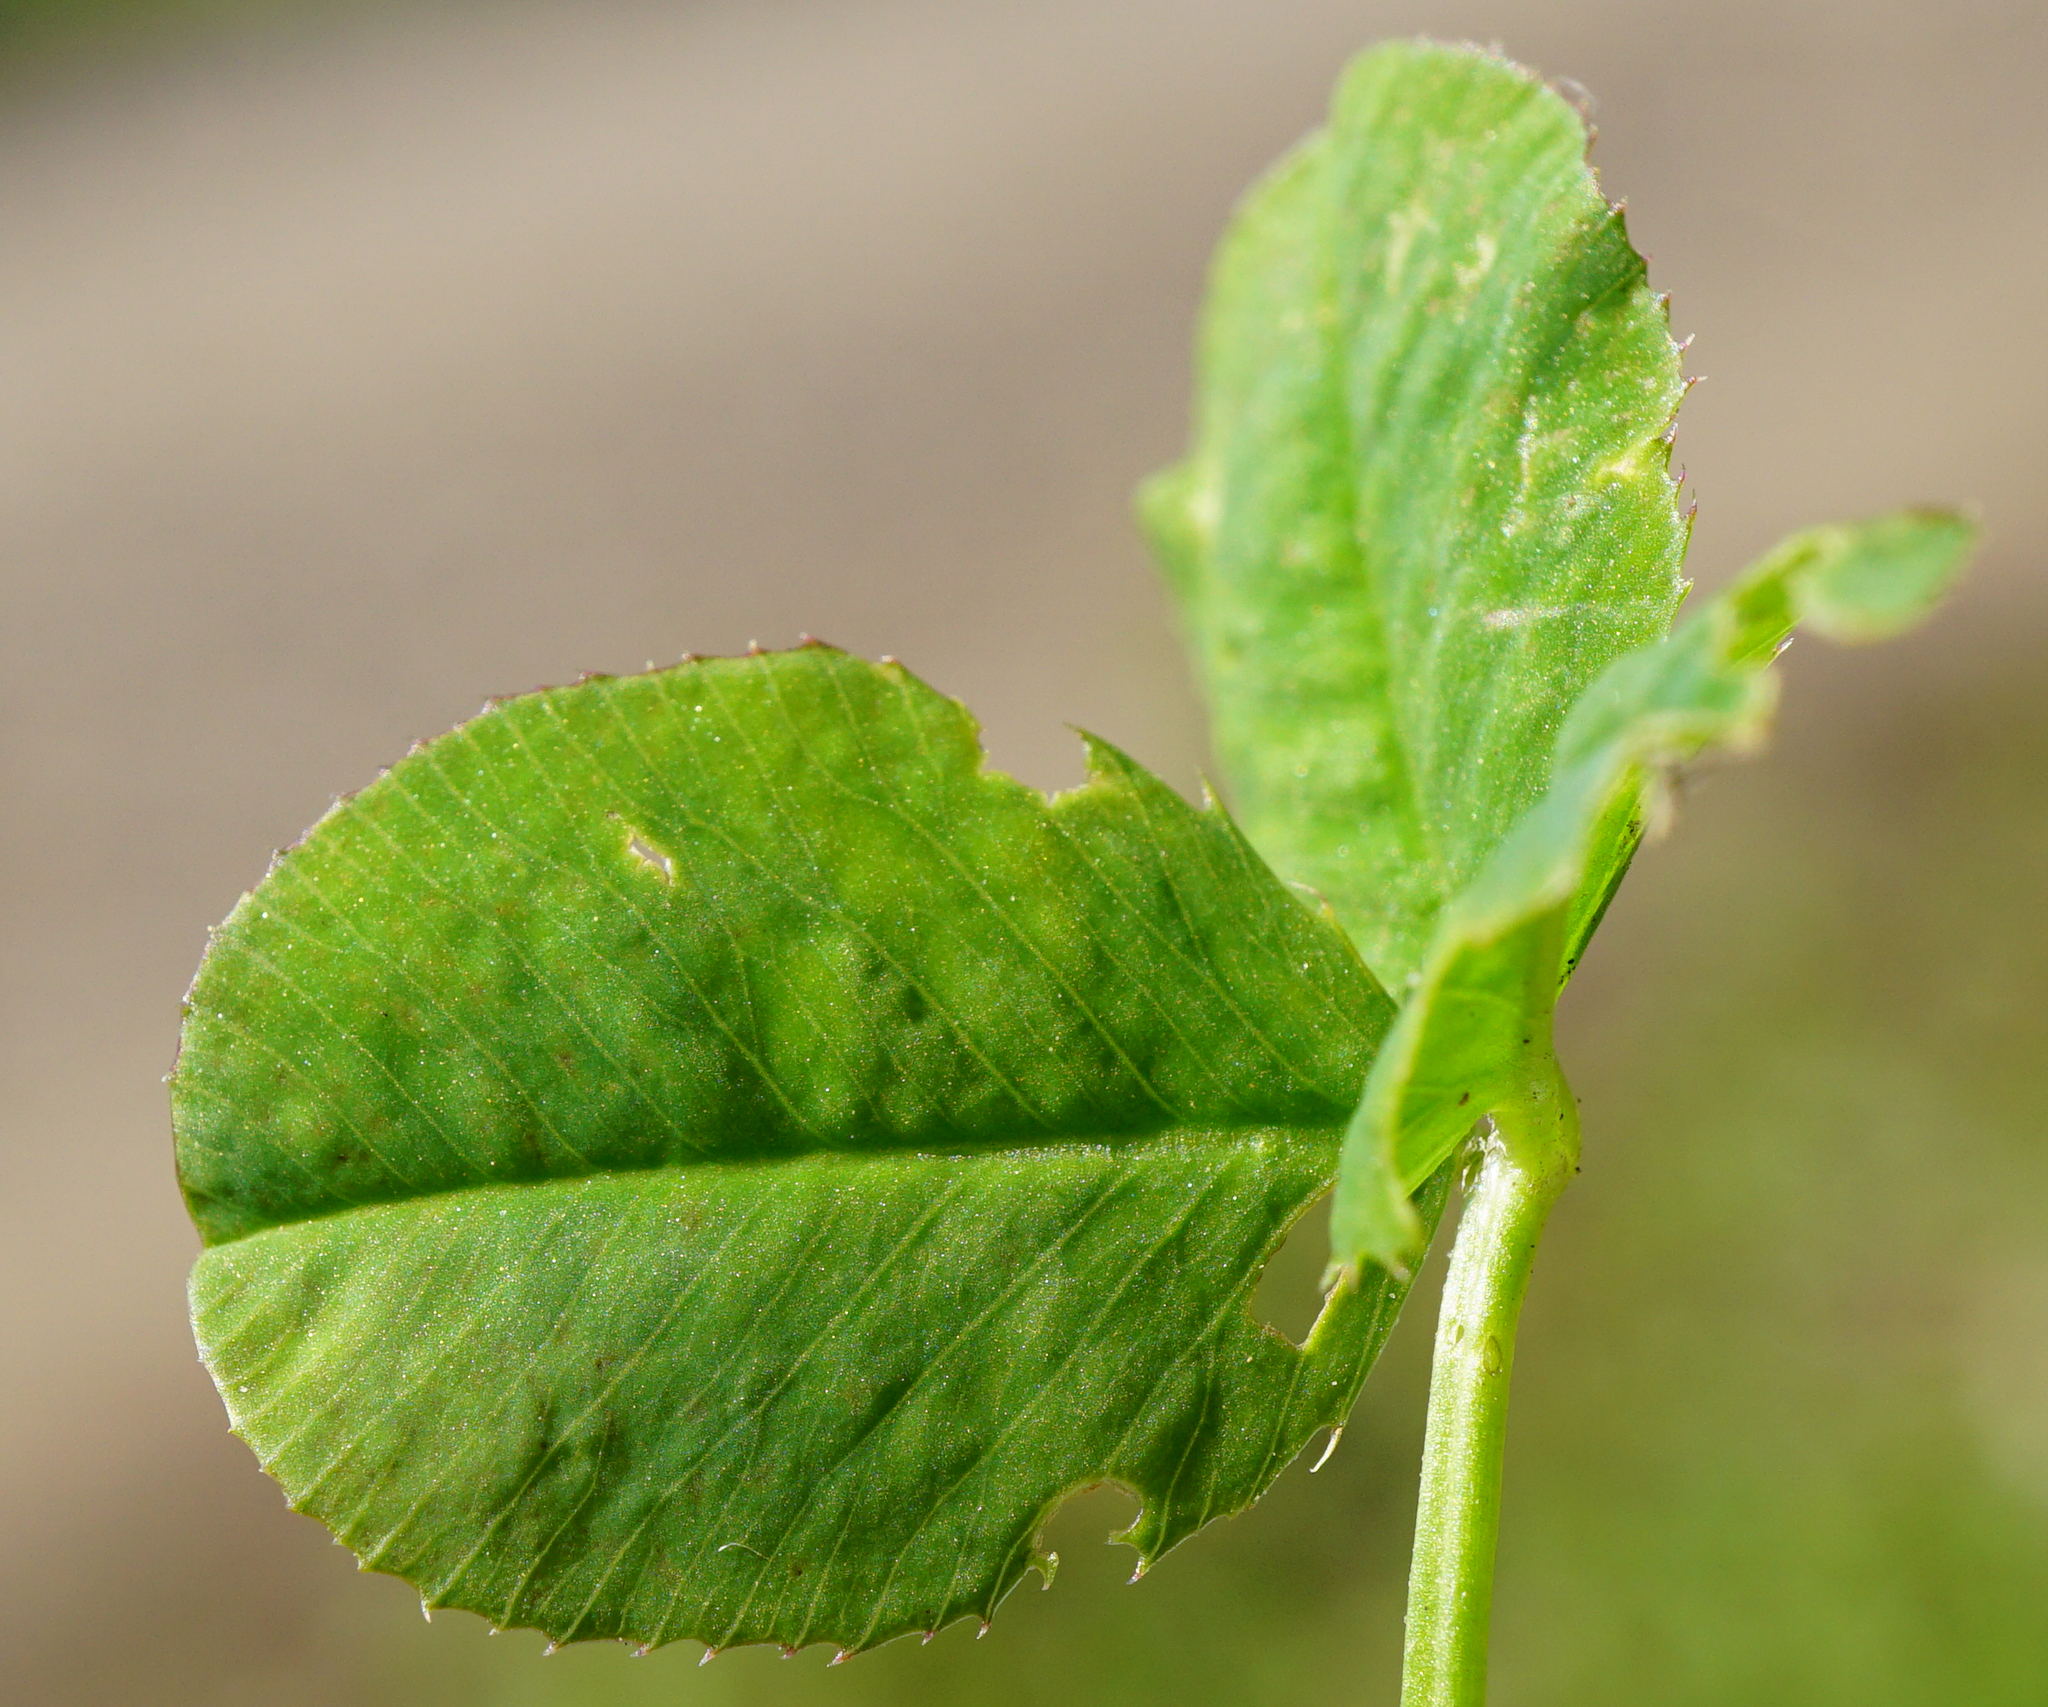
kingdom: Plantae
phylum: Tracheophyta
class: Magnoliopsida
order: Fabales
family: Fabaceae
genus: Trifolium
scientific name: Trifolium repens
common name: White clover
